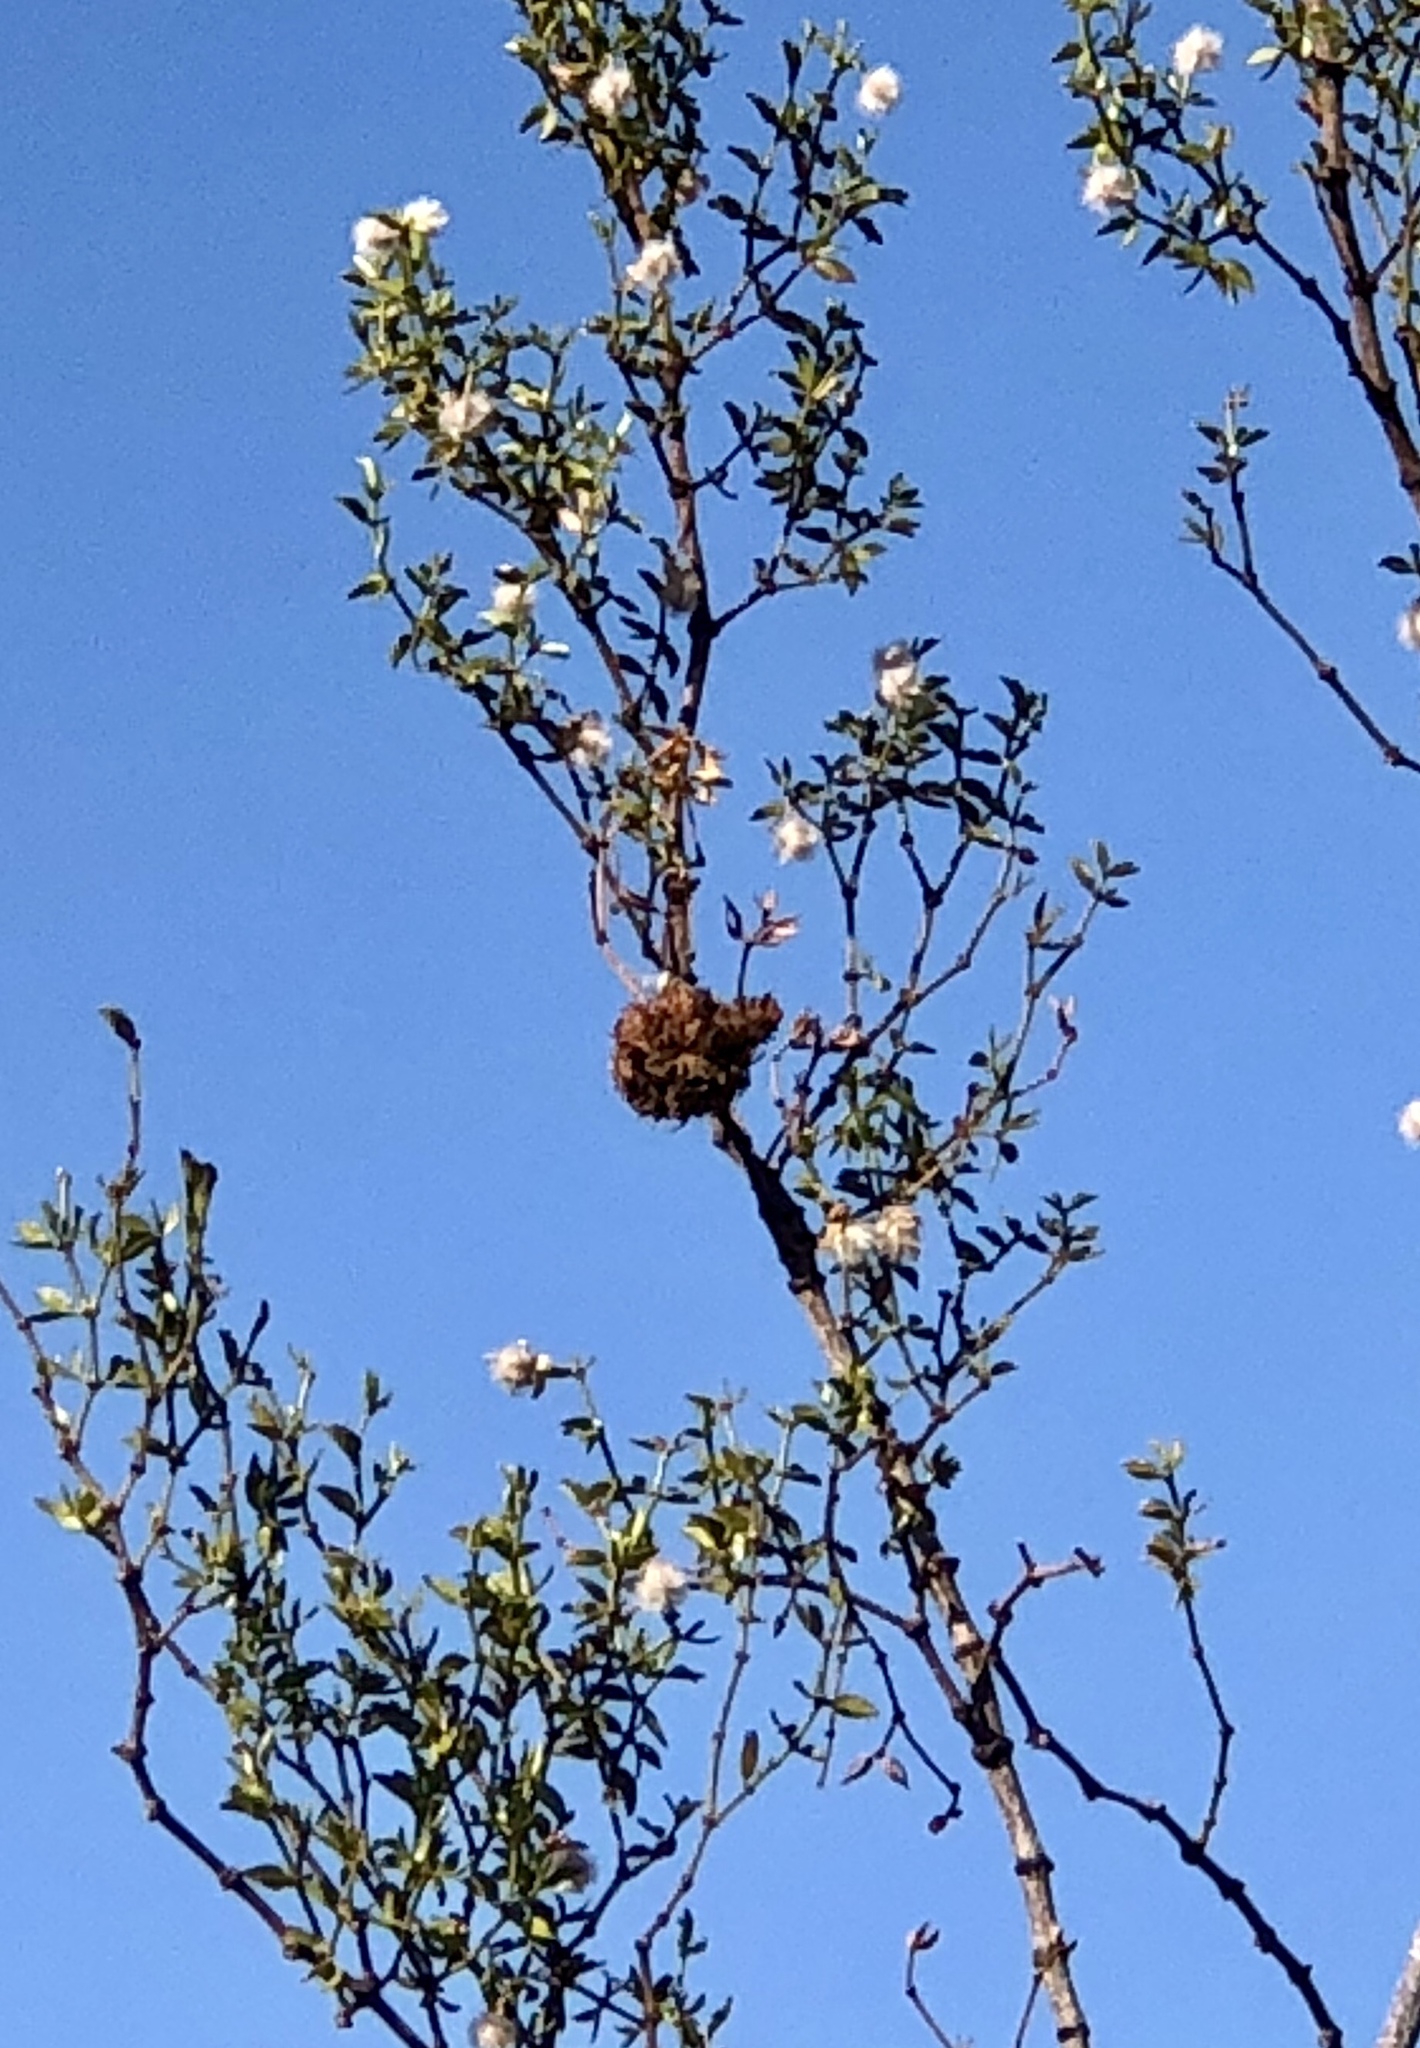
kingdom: Animalia
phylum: Arthropoda
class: Insecta
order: Diptera
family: Cecidomyiidae
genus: Asphondylia
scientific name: Asphondylia auripila
